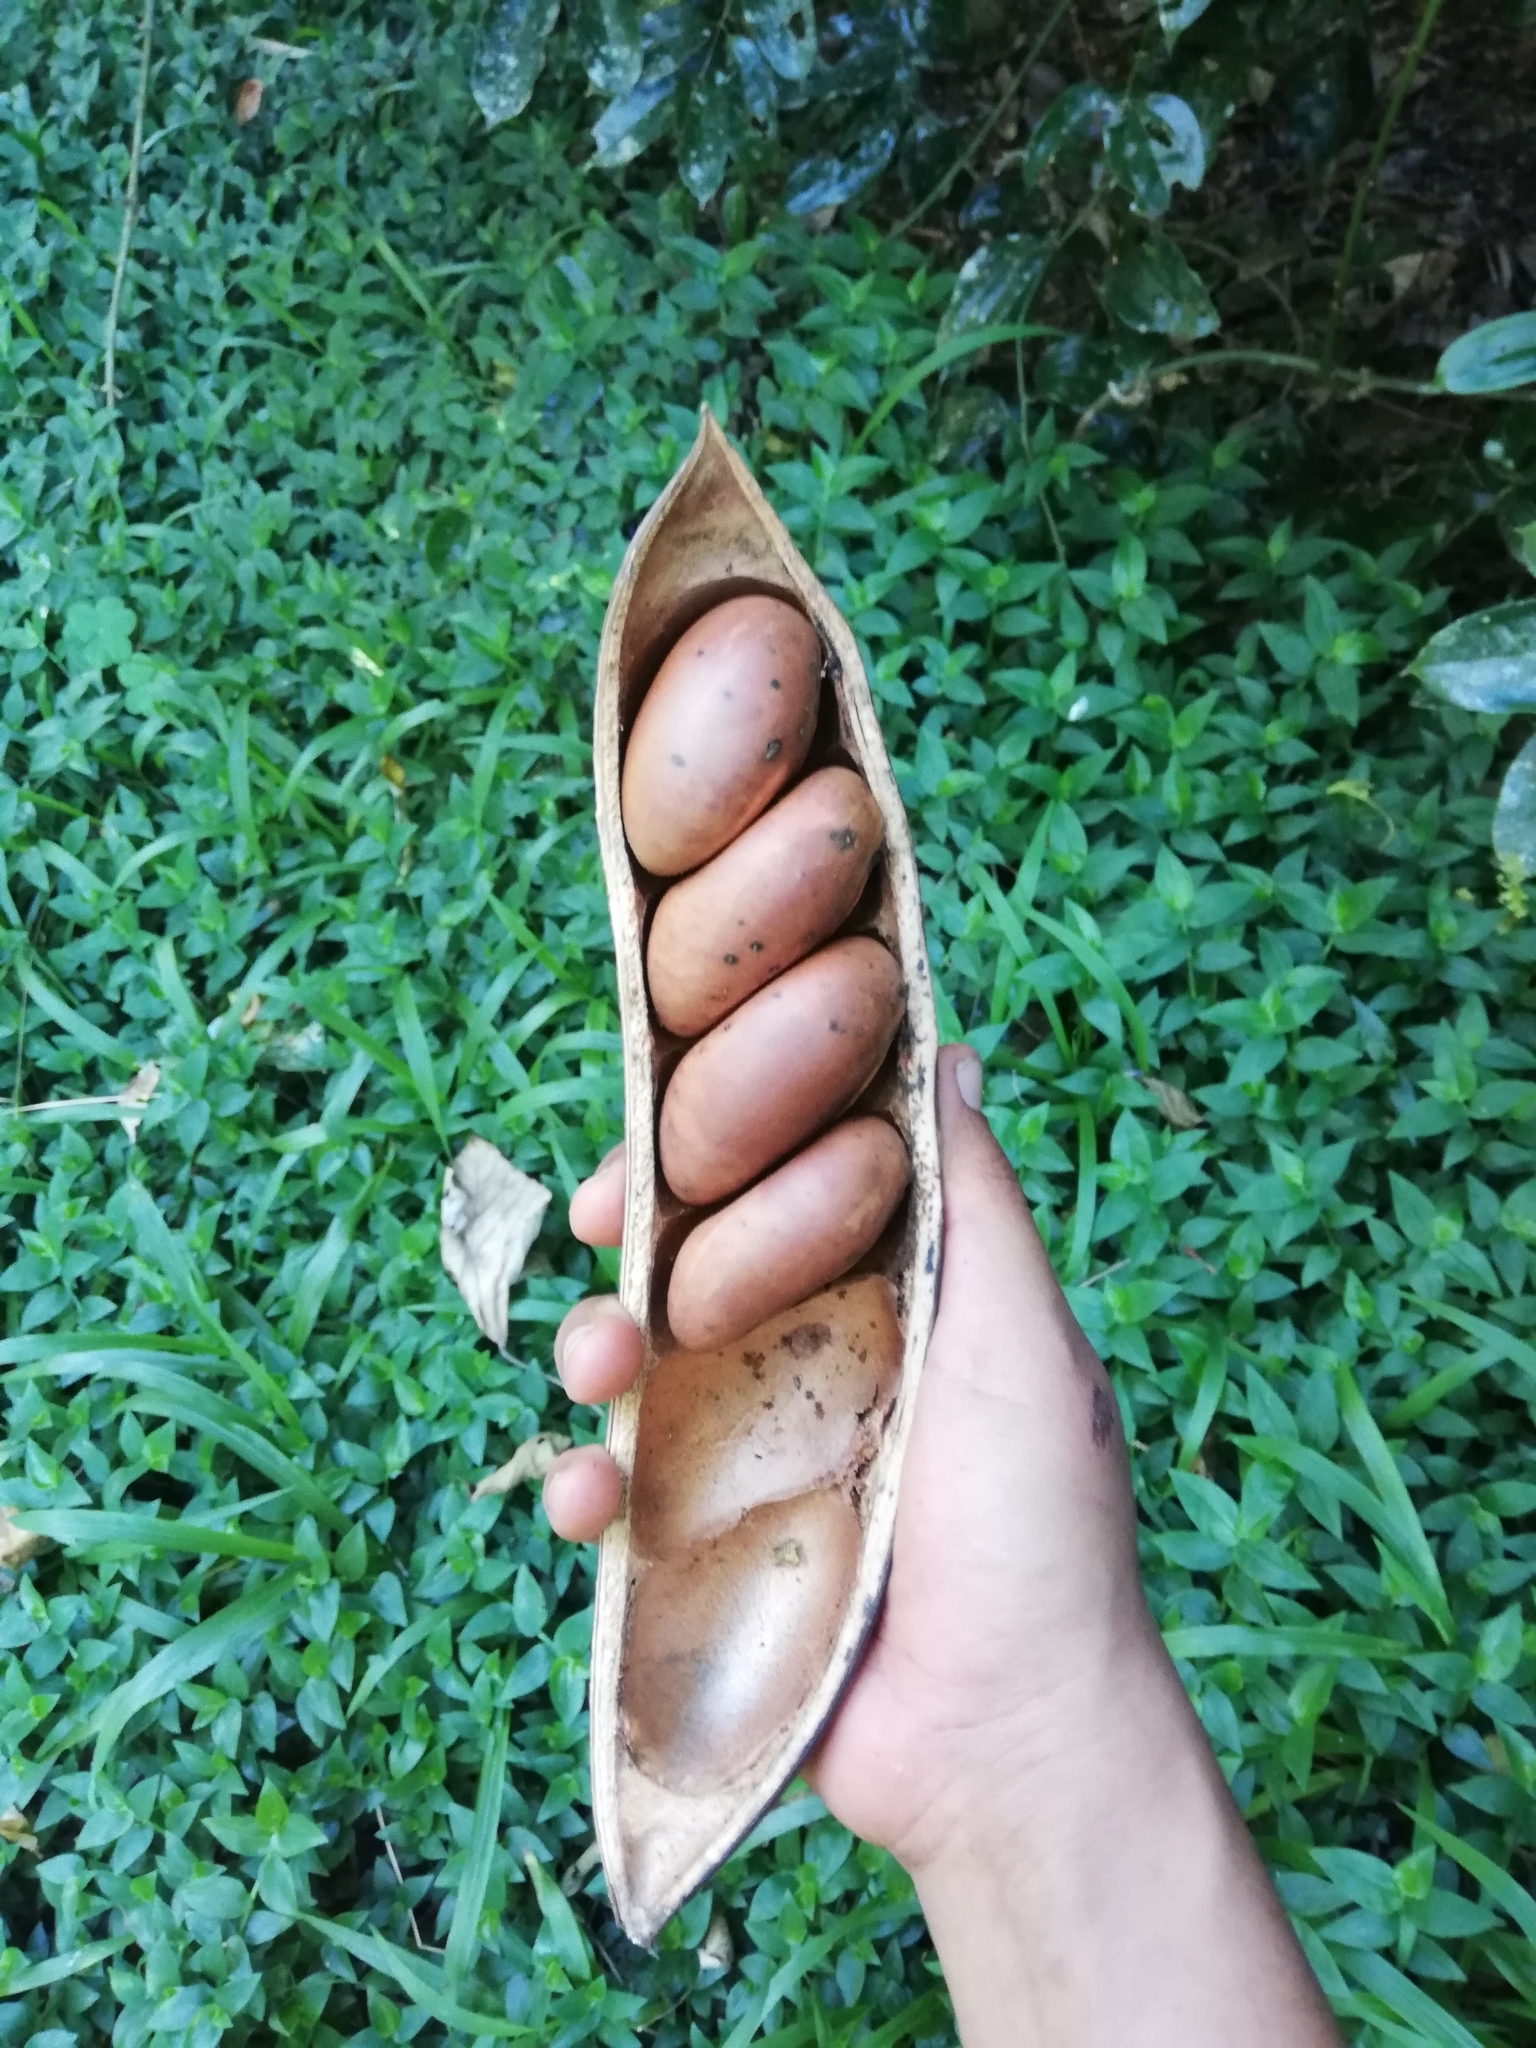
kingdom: Plantae
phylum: Tracheophyta
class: Magnoliopsida
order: Fabales
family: Fabaceae
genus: Castanospermum
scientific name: Castanospermum australe
